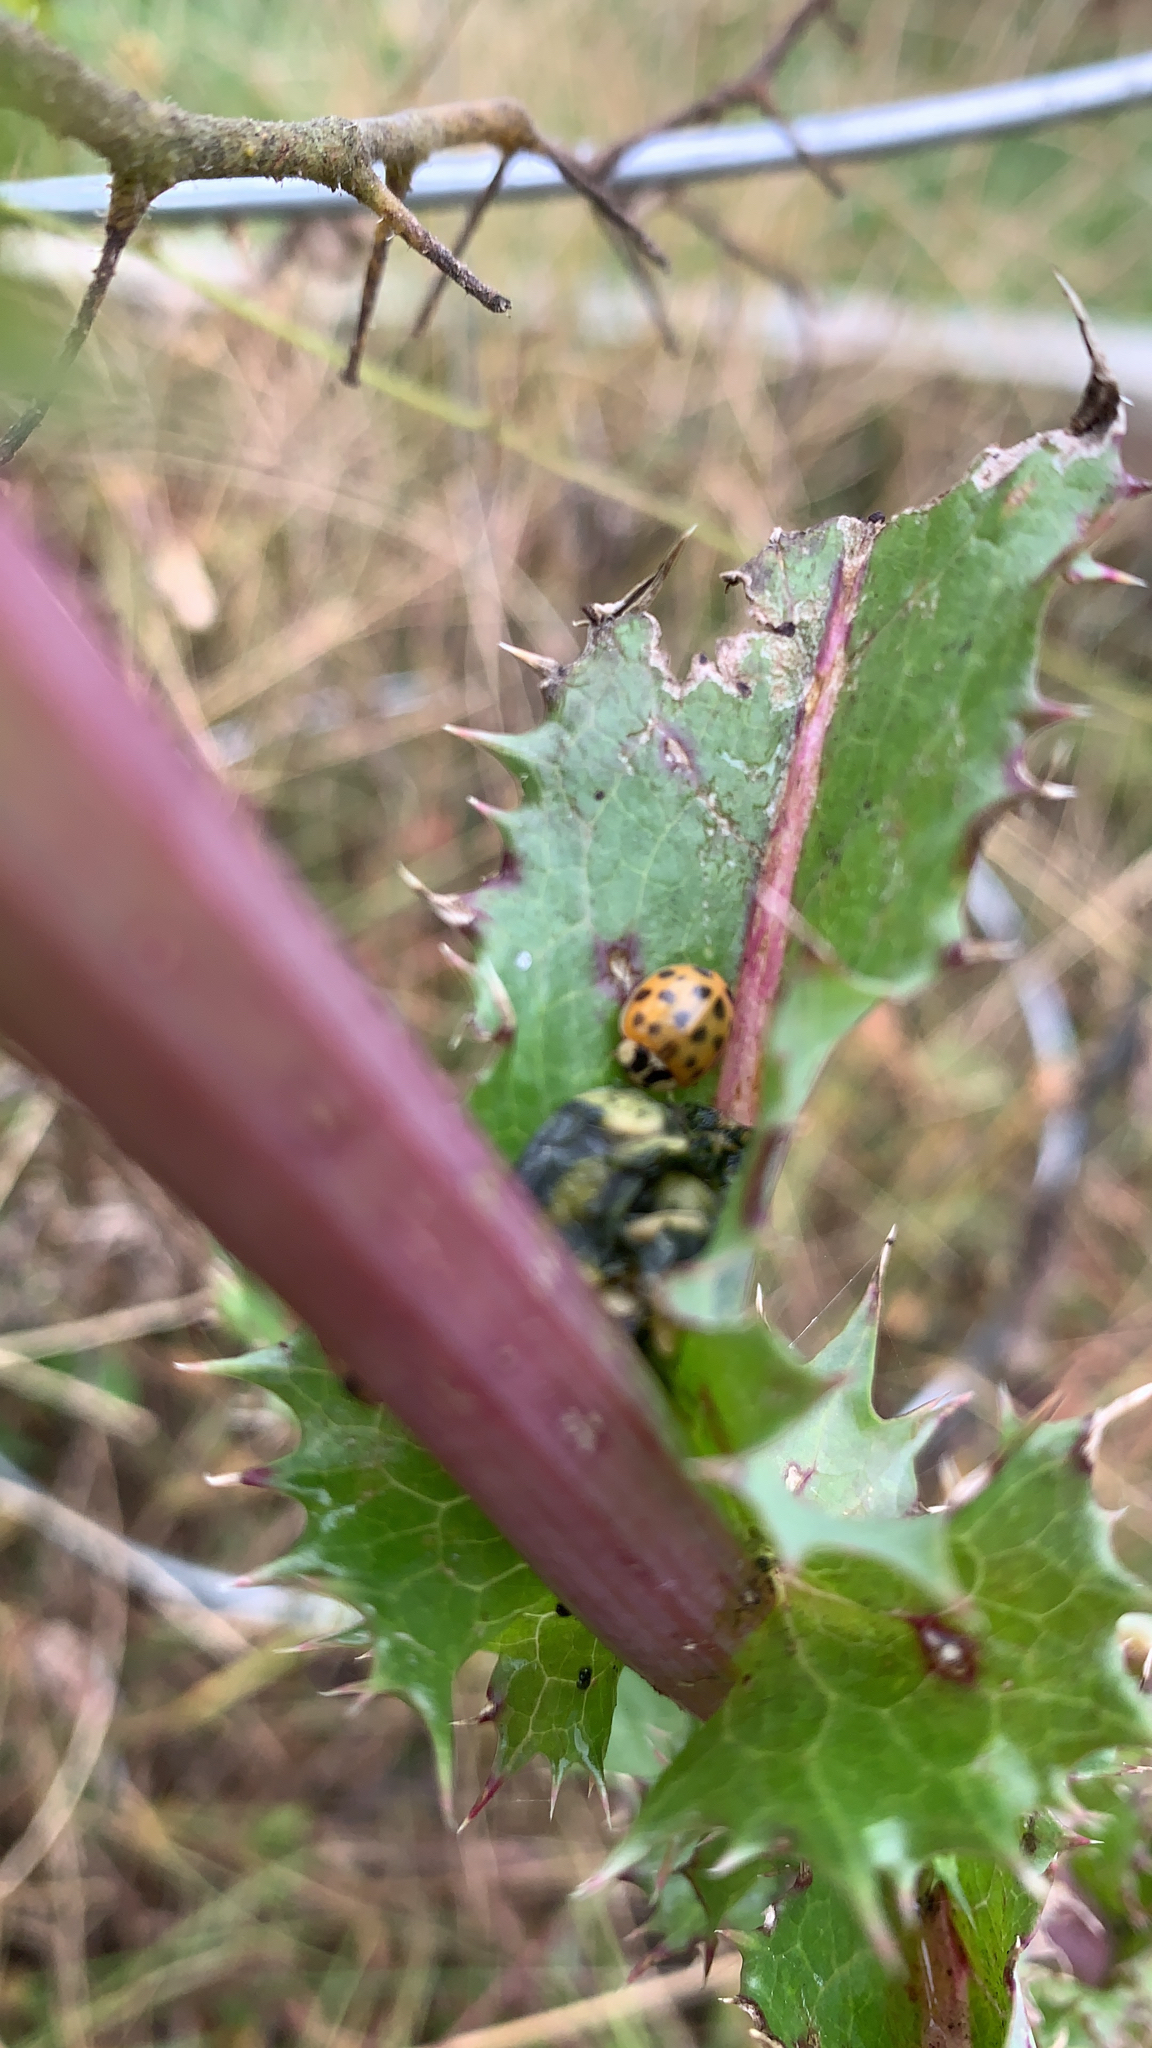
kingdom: Animalia
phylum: Arthropoda
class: Insecta
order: Coleoptera
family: Coccinellidae
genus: Harmonia
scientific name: Harmonia axyridis
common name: Harlequin ladybird
